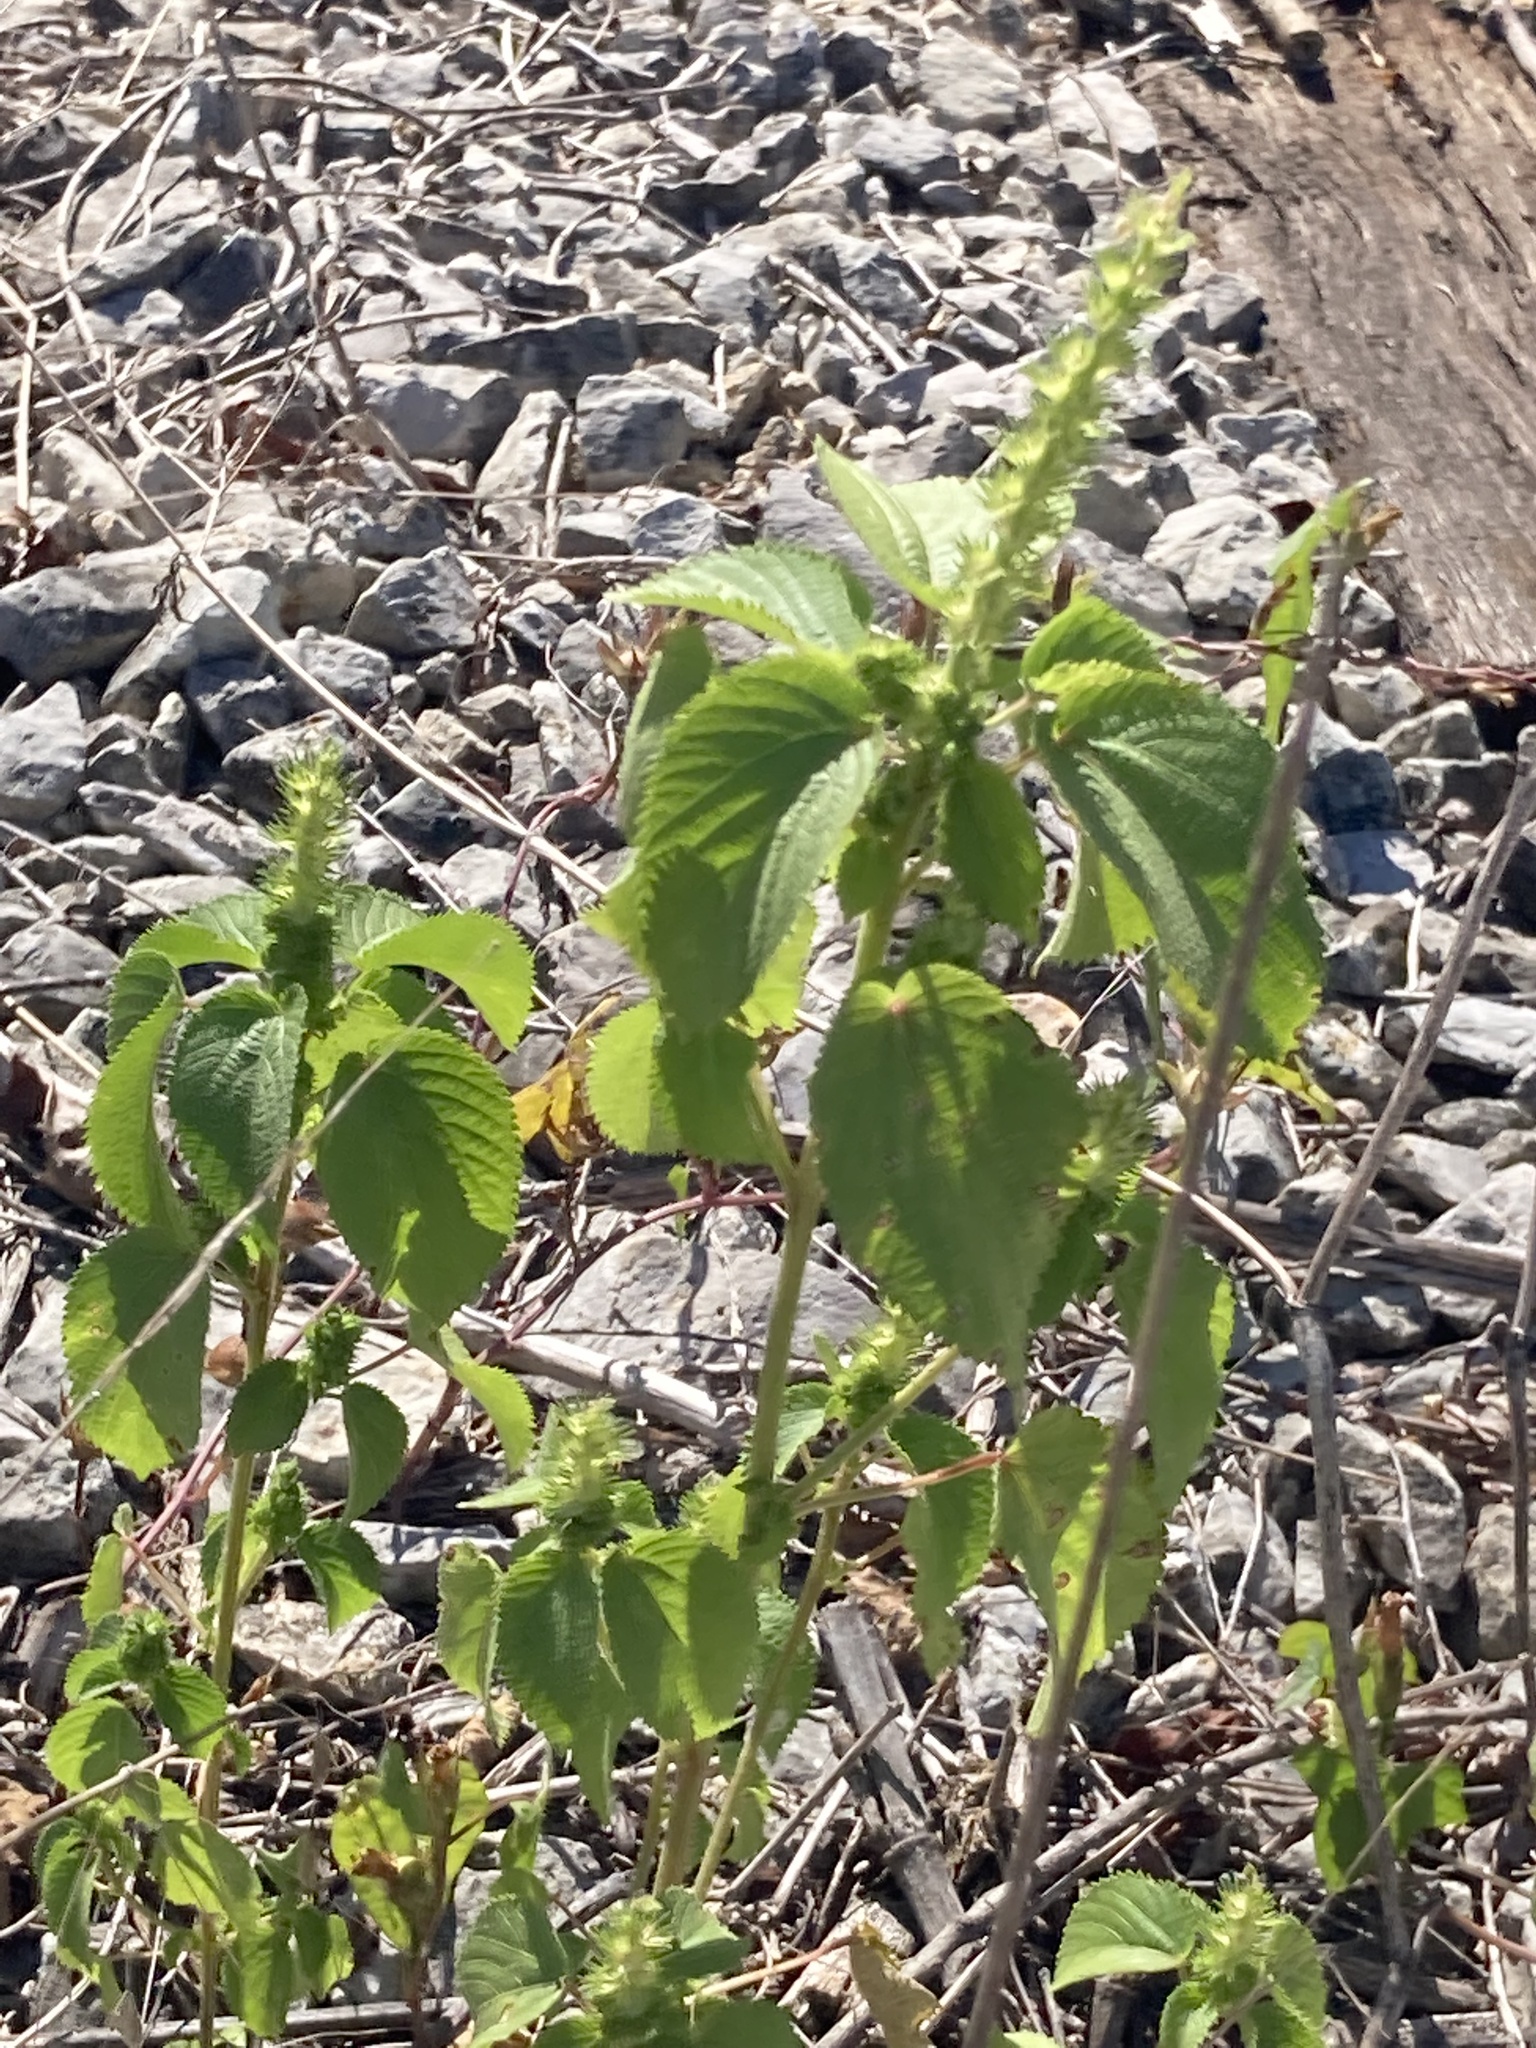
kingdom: Plantae
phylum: Tracheophyta
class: Magnoliopsida
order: Malpighiales
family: Euphorbiaceae
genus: Acalypha
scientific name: Acalypha ostryifolia
